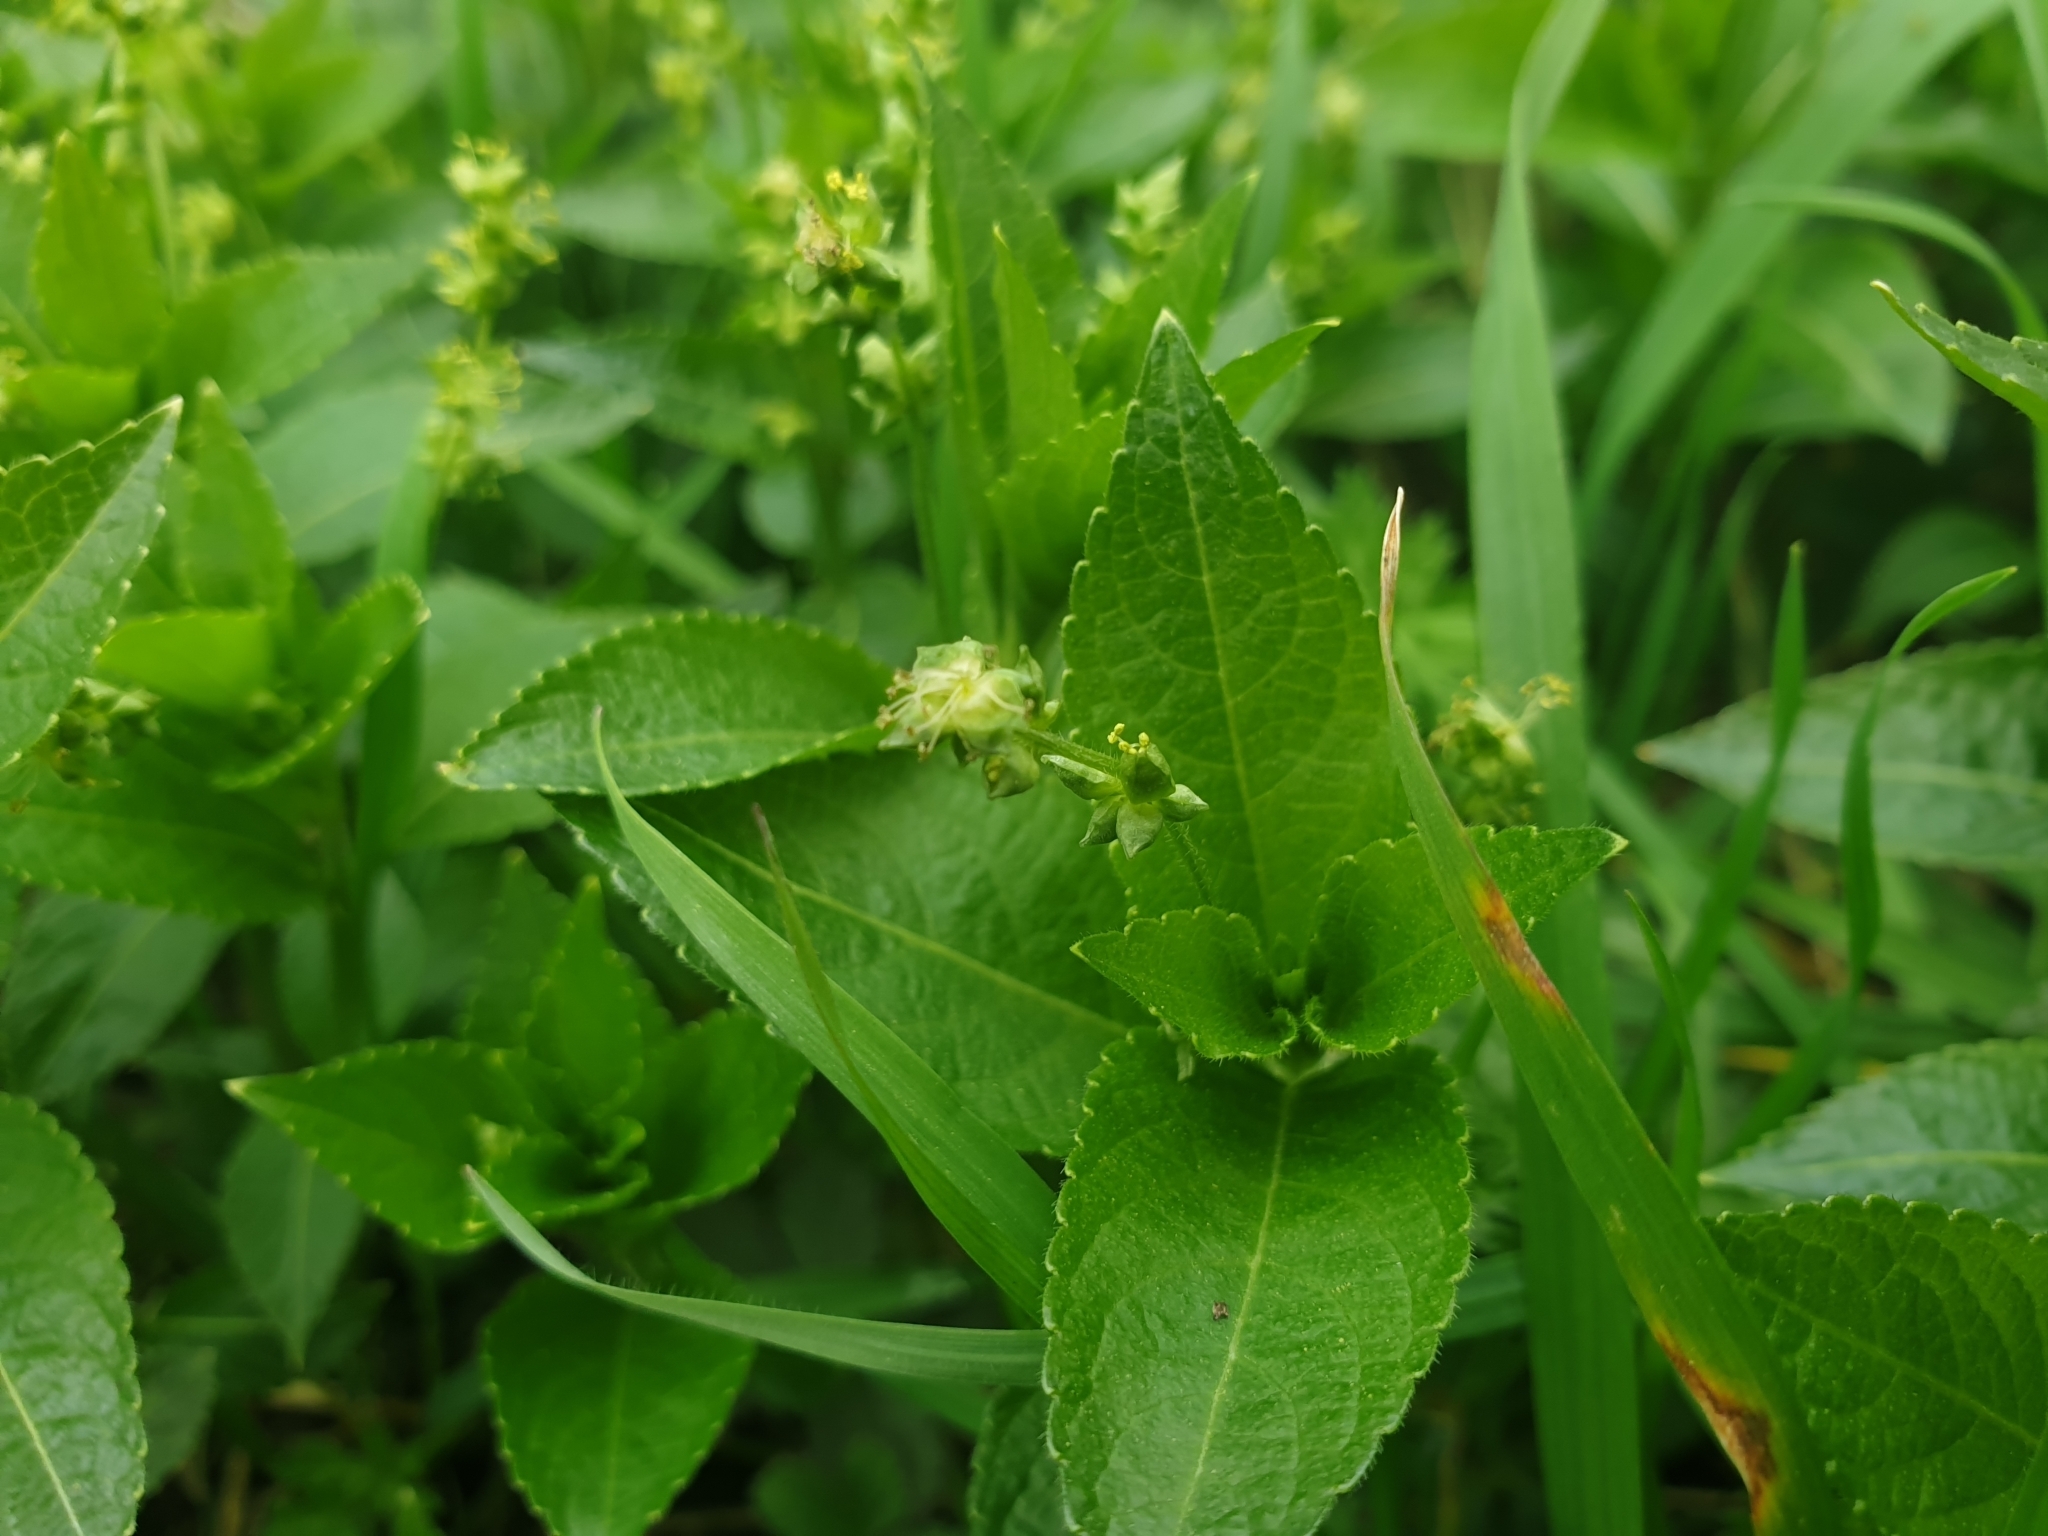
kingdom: Plantae
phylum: Tracheophyta
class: Magnoliopsida
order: Malpighiales
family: Euphorbiaceae
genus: Mercurialis
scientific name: Mercurialis perennis
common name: Dog mercury
